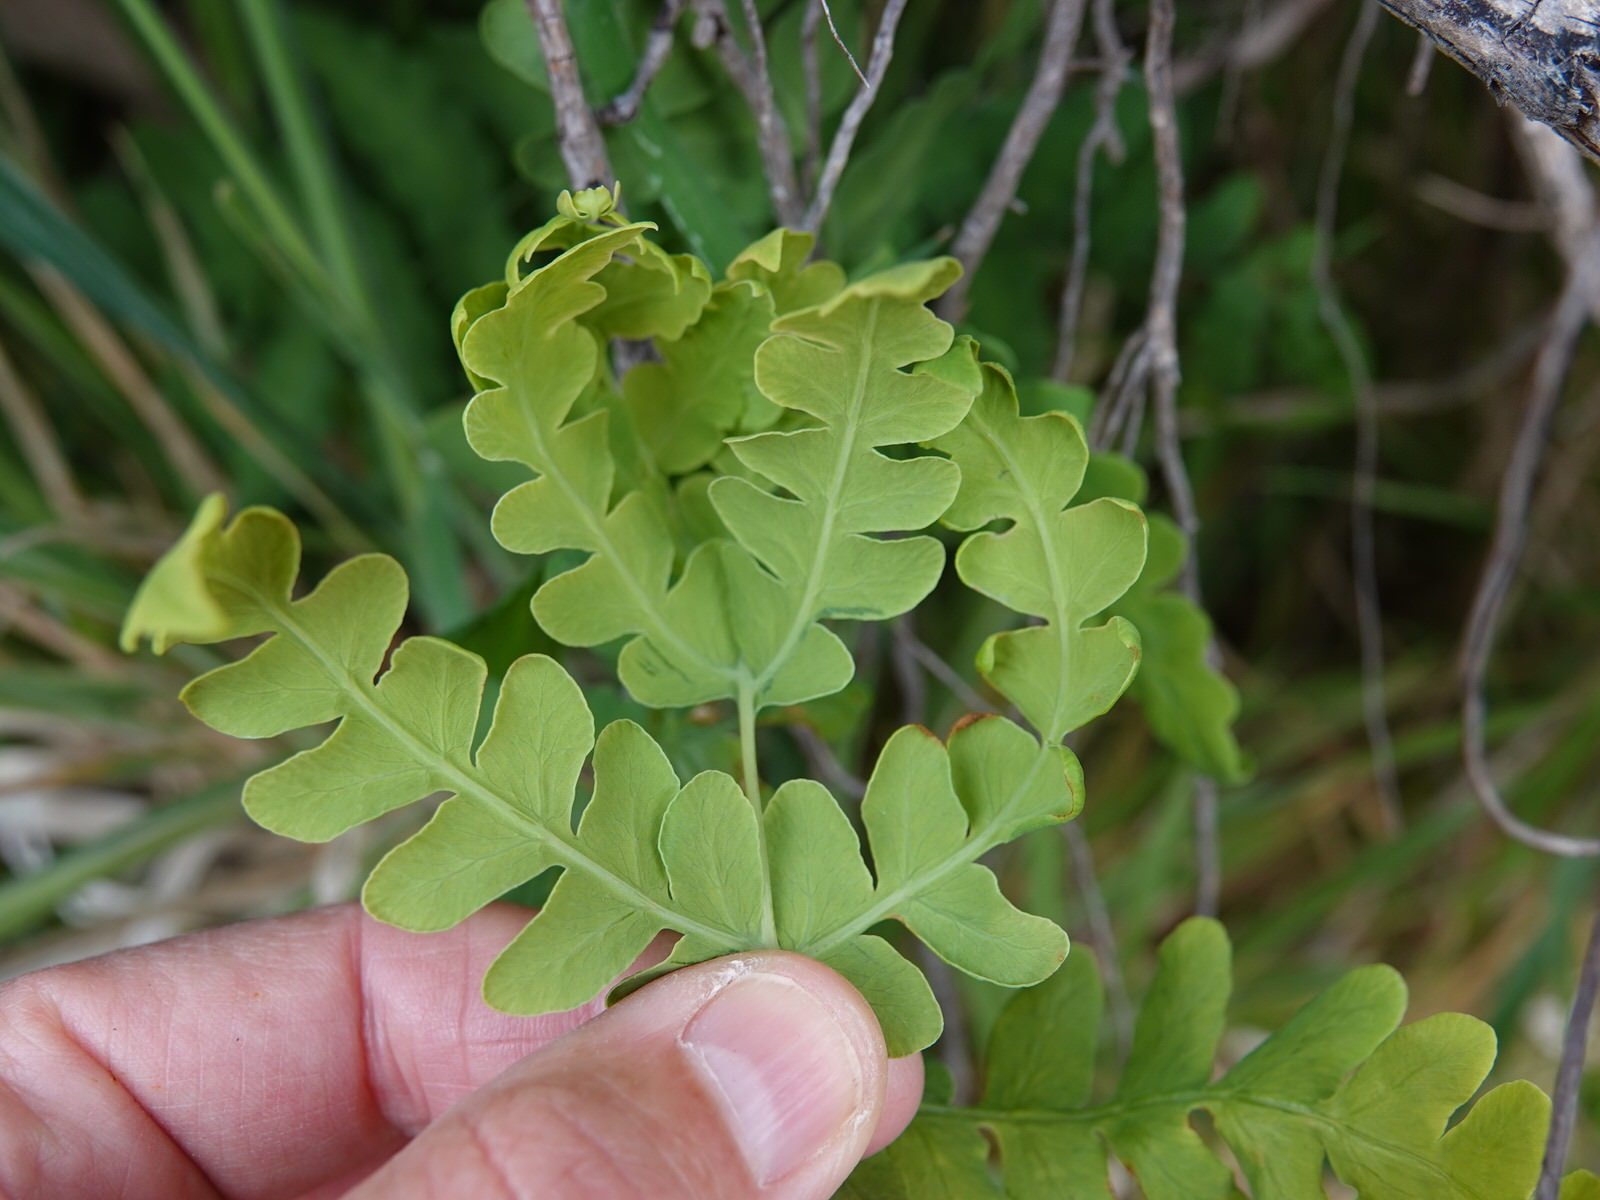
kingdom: Plantae
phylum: Tracheophyta
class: Polypodiopsida
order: Polypodiales
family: Dennstaedtiaceae
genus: Histiopteris
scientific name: Histiopteris incisa
